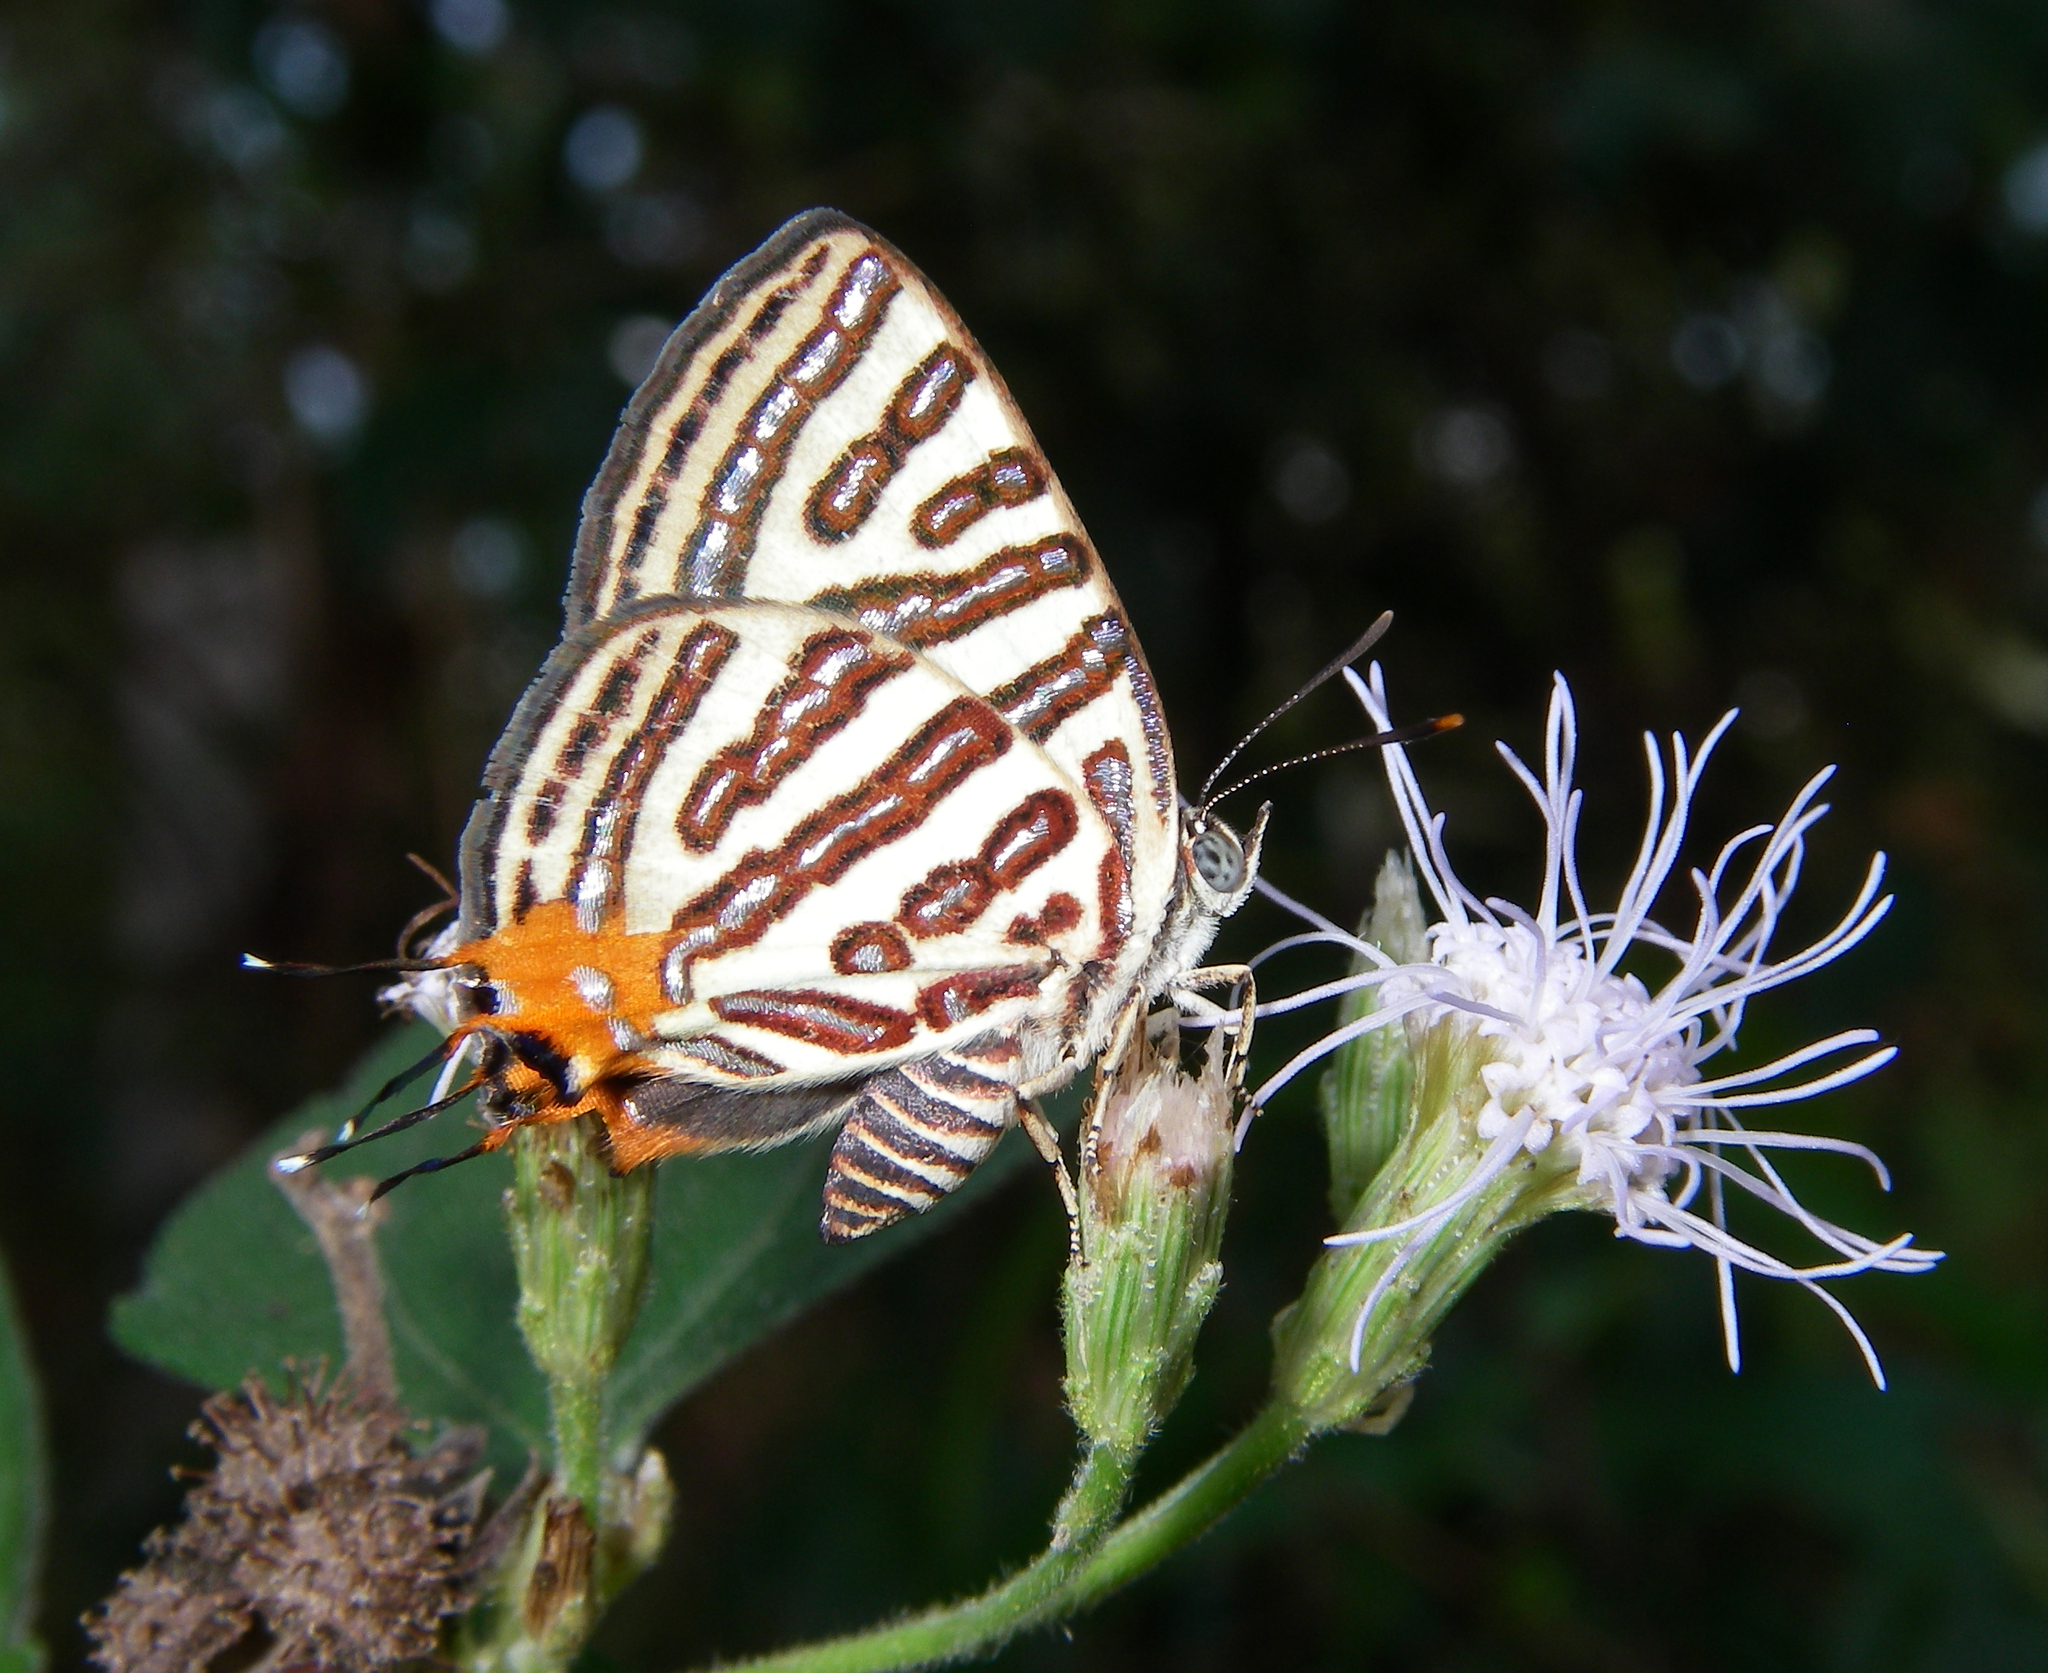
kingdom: Animalia
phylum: Arthropoda
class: Insecta
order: Lepidoptera
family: Lycaenidae
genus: Cigaritis
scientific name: Cigaritis syama
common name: Club silverline
